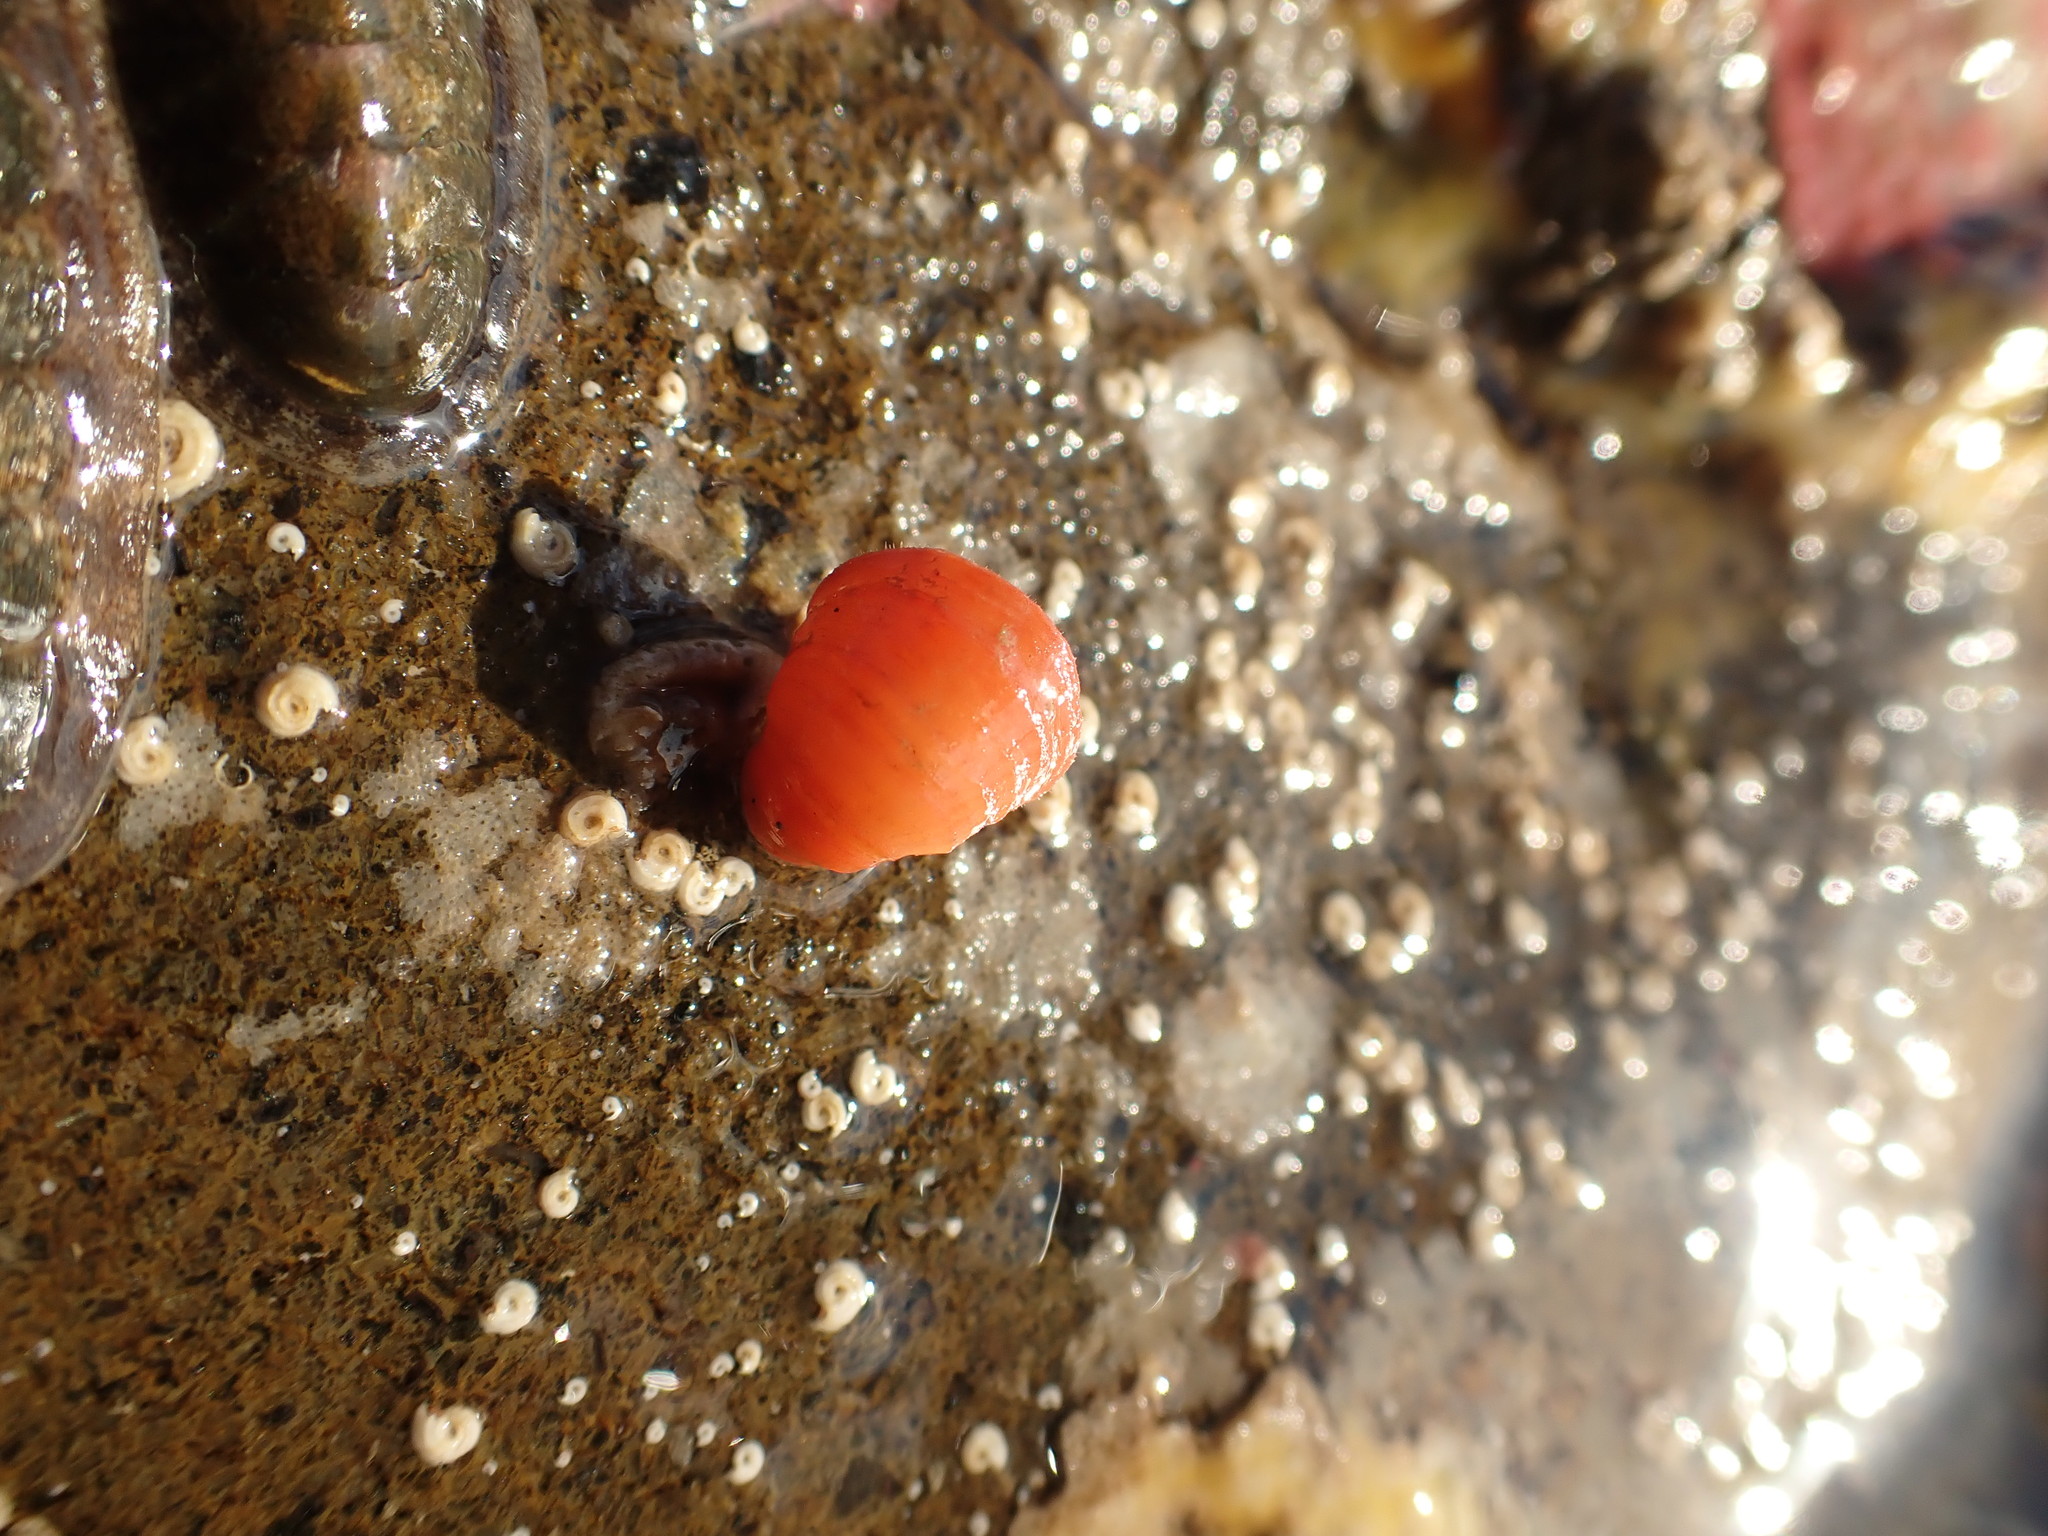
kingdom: Animalia
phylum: Brachiopoda
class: Rhynchonellata
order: Terebratulida
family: Terebratellidae
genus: Calloria
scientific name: Calloria inconspicua
